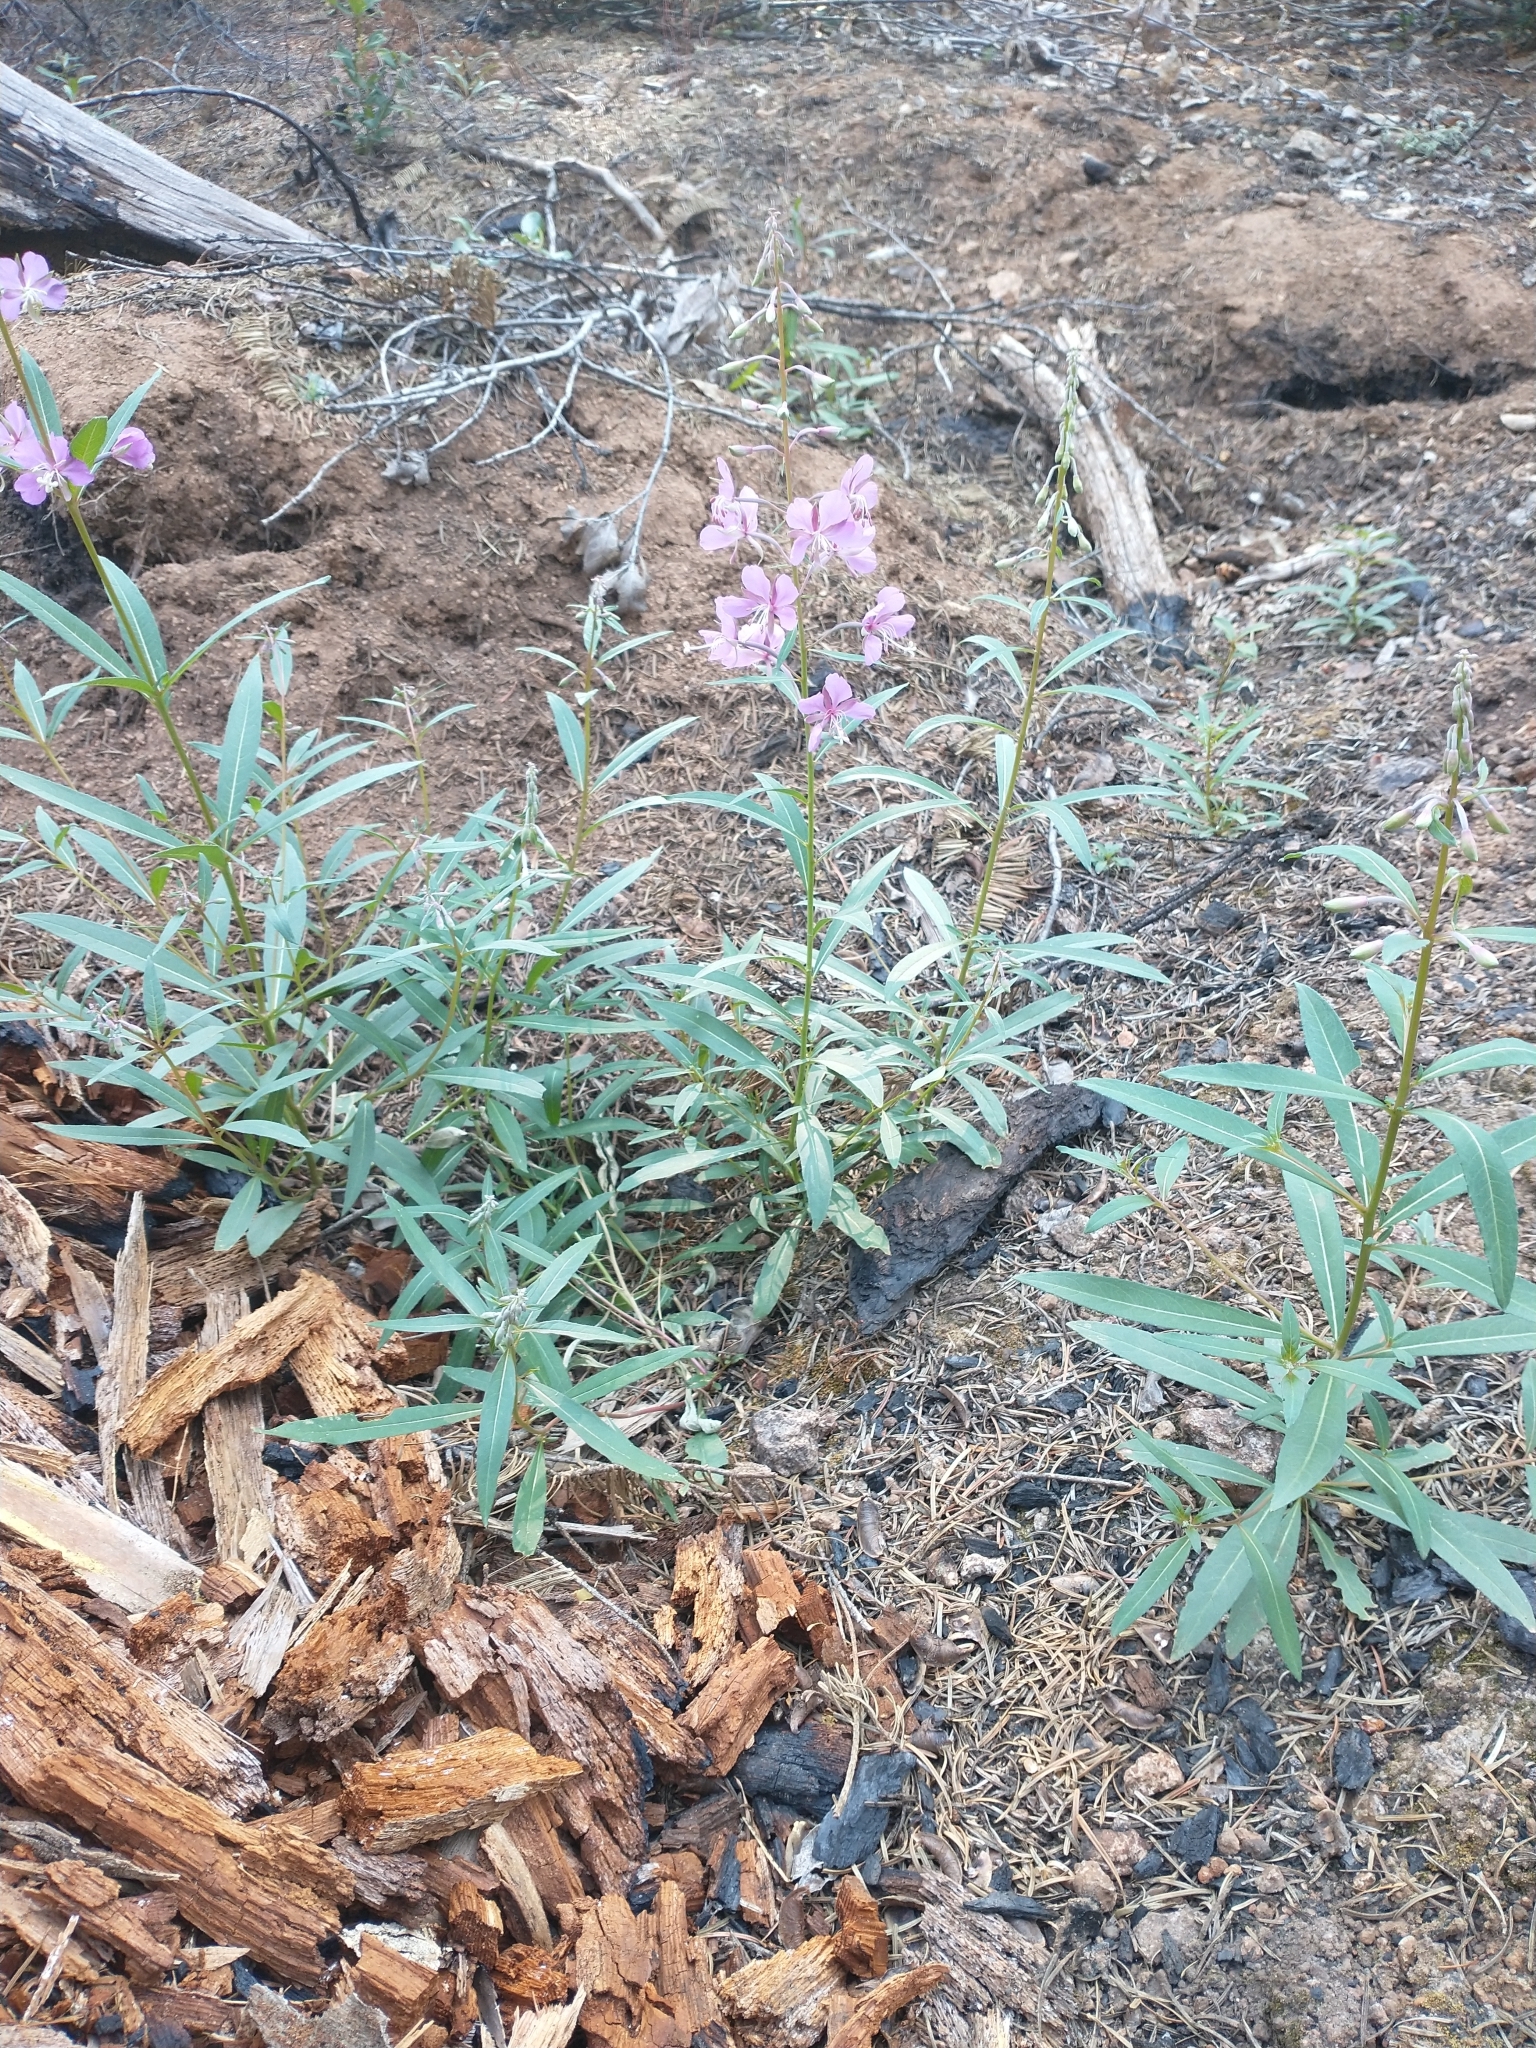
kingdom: Plantae
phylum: Tracheophyta
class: Magnoliopsida
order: Myrtales
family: Onagraceae
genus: Chamaenerion
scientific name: Chamaenerion angustifolium
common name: Fireweed
